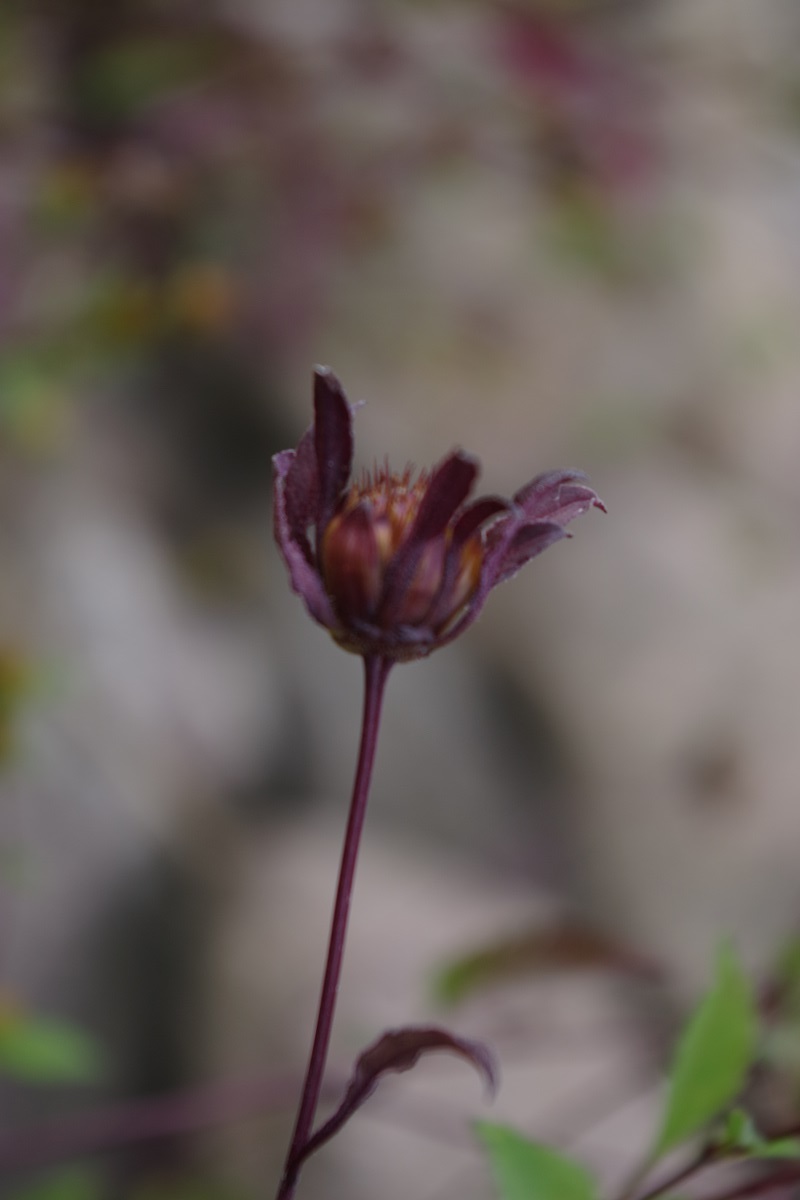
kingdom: Plantae
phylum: Tracheophyta
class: Magnoliopsida
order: Asterales
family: Asteraceae
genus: Bidens
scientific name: Bidens frondosa
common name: Beggarticks
